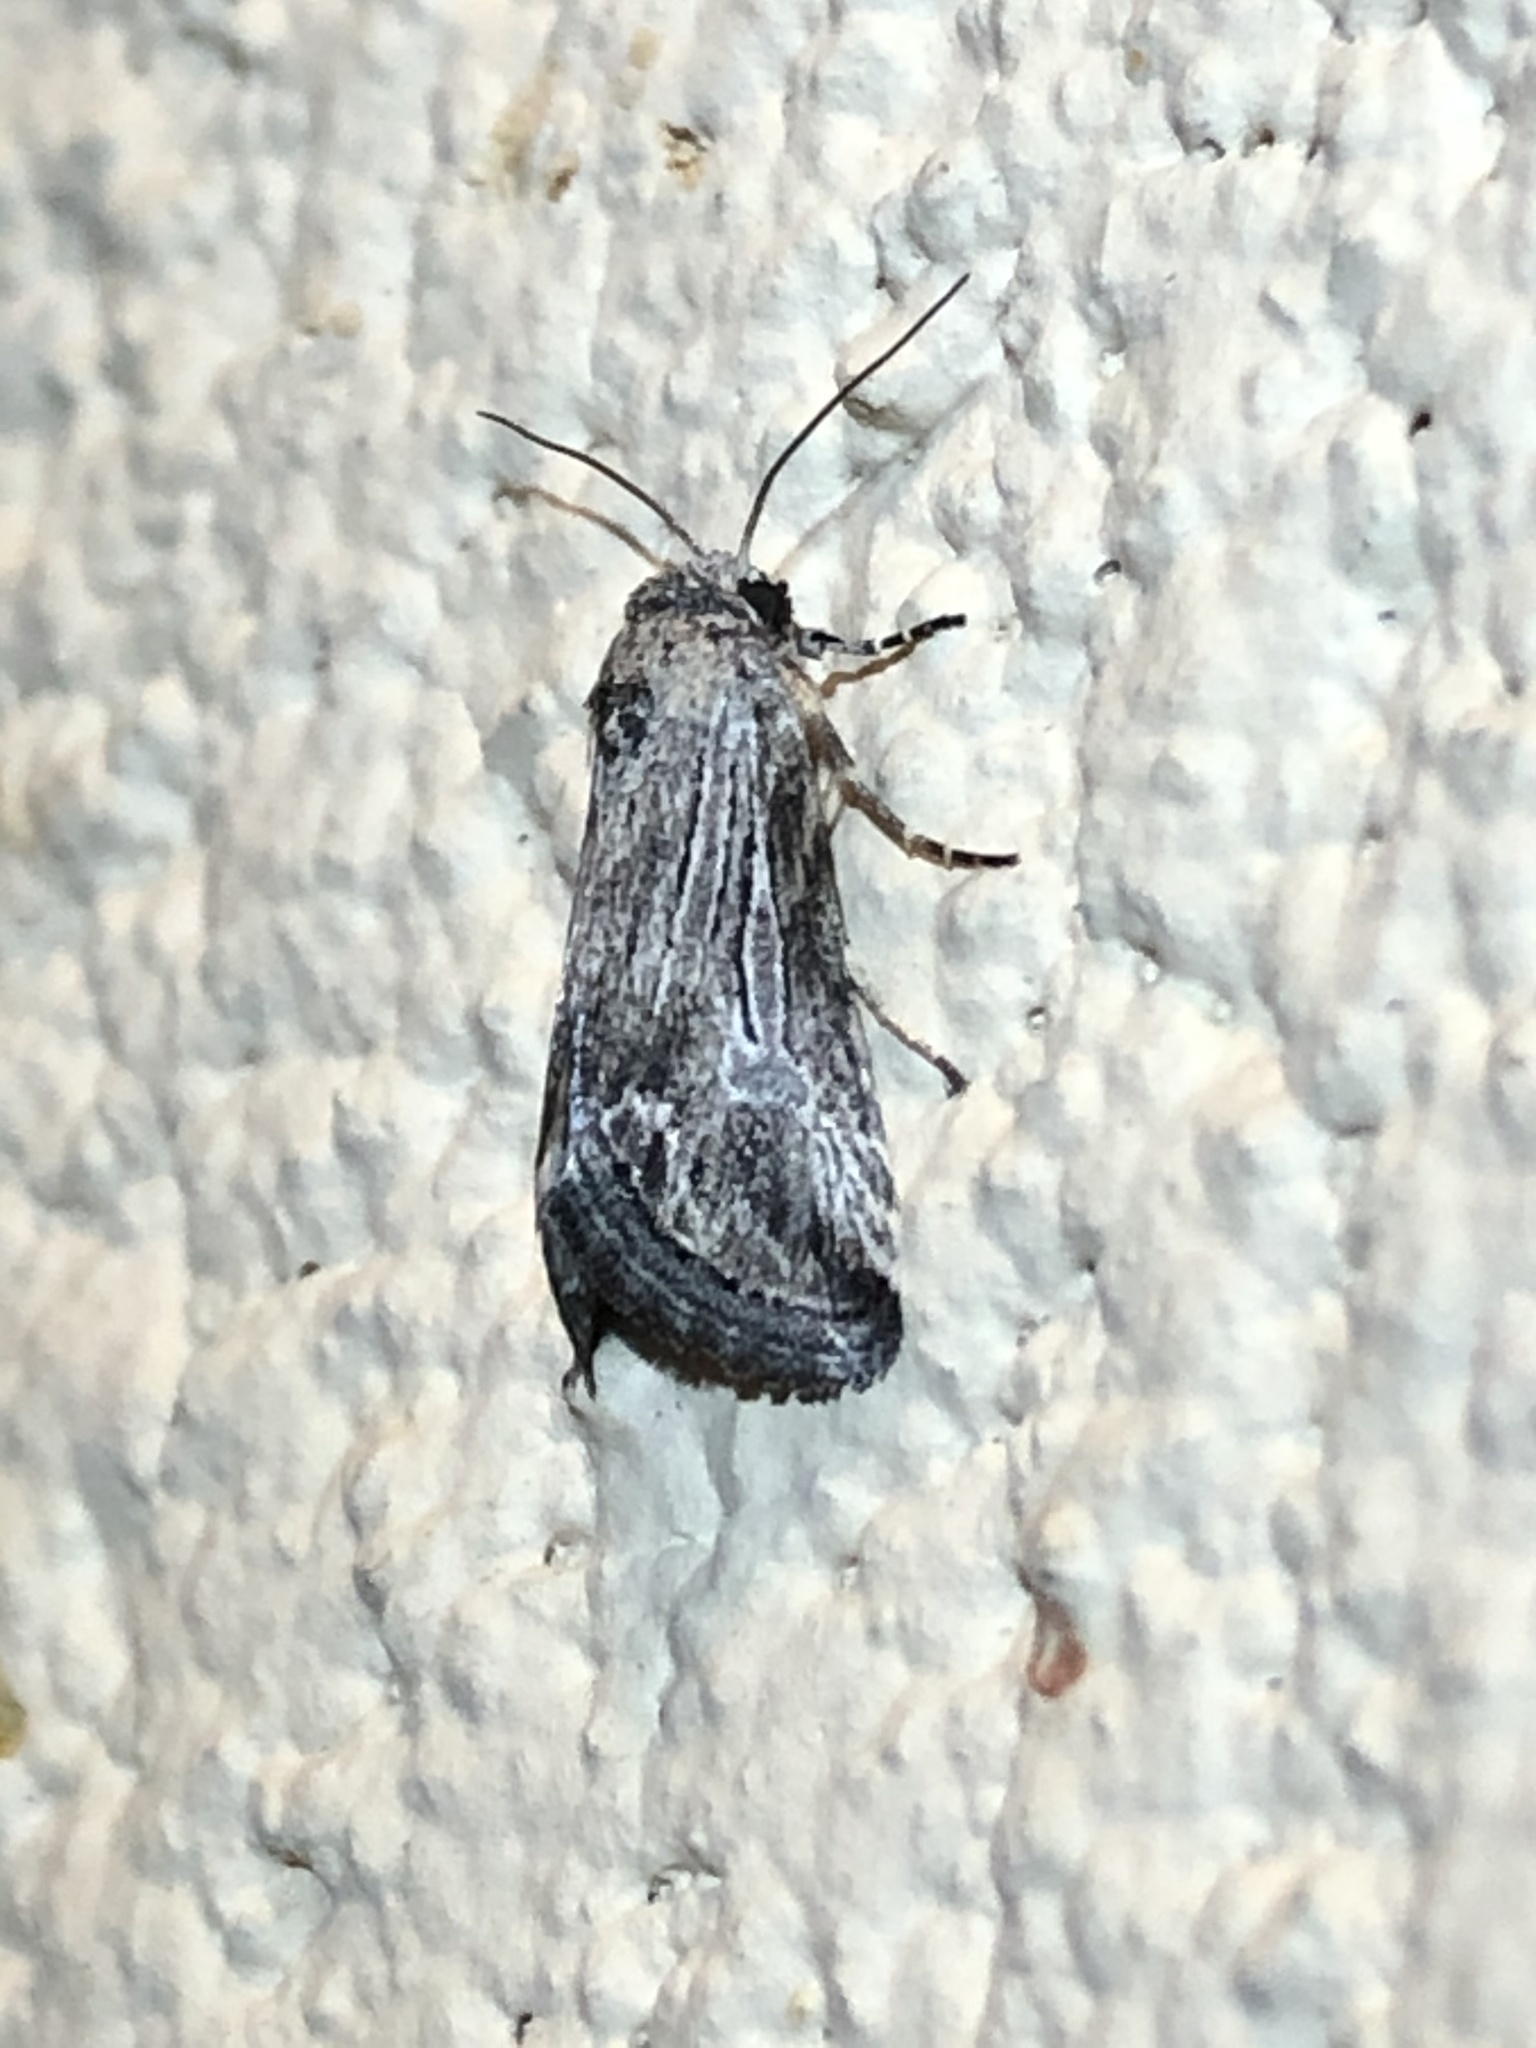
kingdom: Animalia
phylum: Arthropoda
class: Insecta
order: Lepidoptera
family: Noctuidae
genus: Sympistis
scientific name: Sympistis
